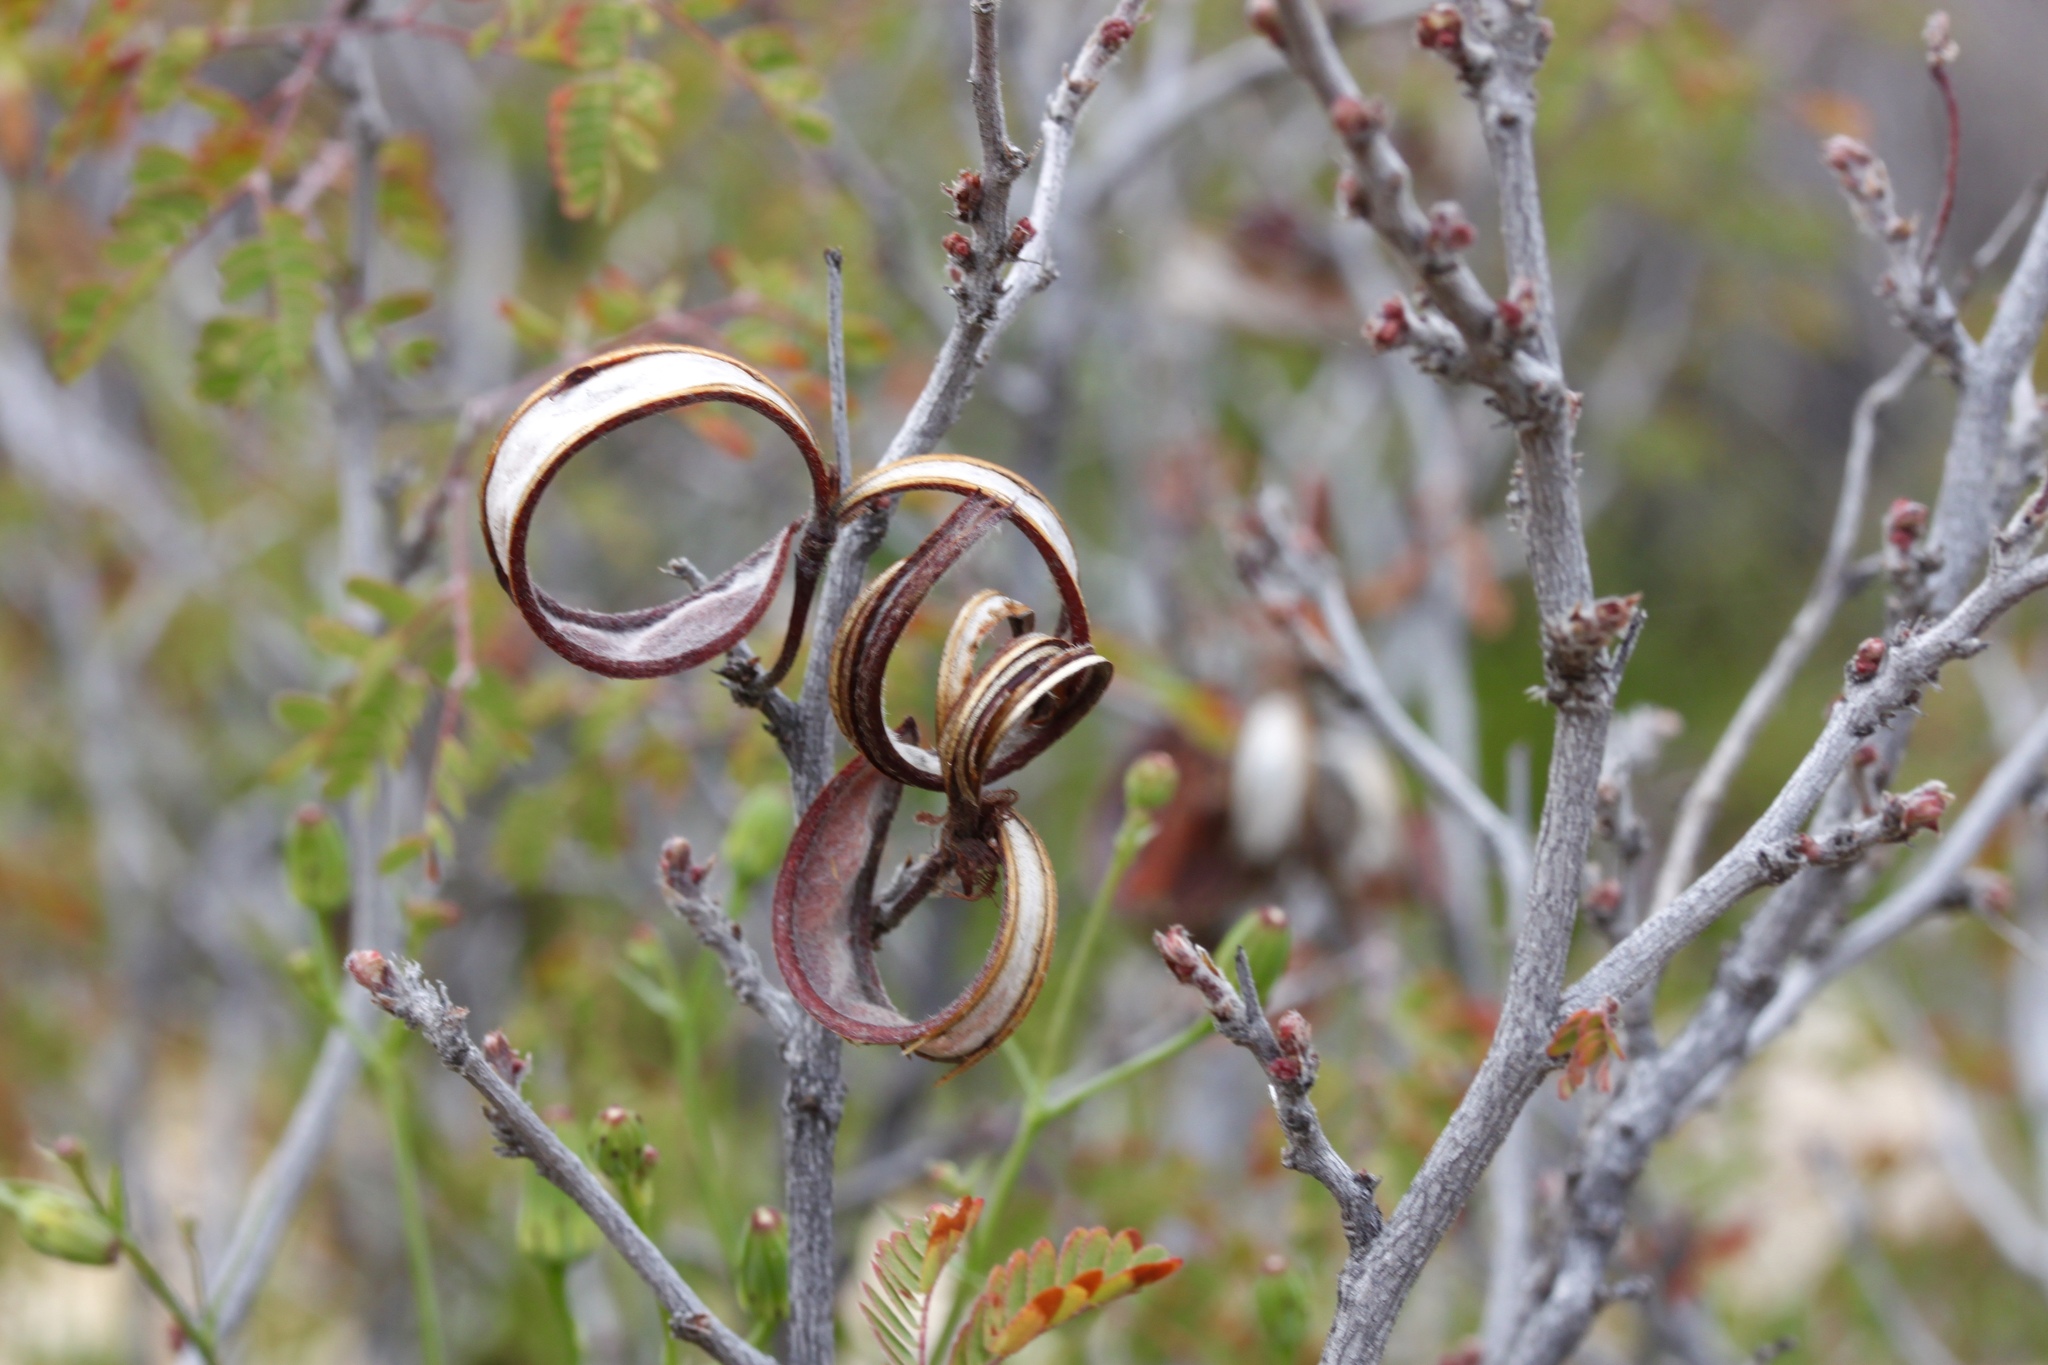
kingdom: Plantae
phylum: Tracheophyta
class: Magnoliopsida
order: Fabales
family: Fabaceae
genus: Calliandra
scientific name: Calliandra eriophylla
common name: Fairy-duster
